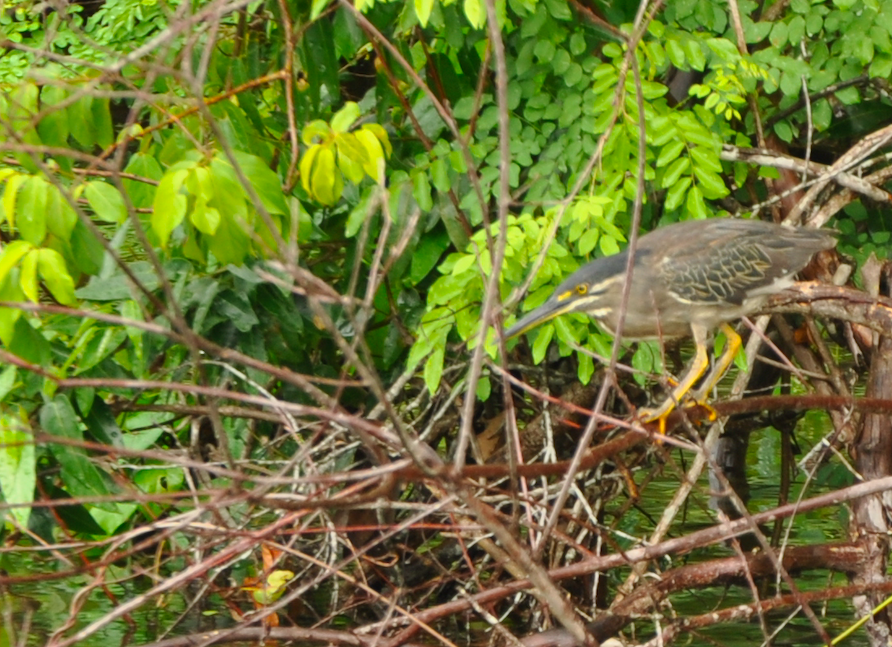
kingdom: Animalia
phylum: Chordata
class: Aves
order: Pelecaniformes
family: Ardeidae
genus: Butorides
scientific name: Butorides striata
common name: Striated heron
